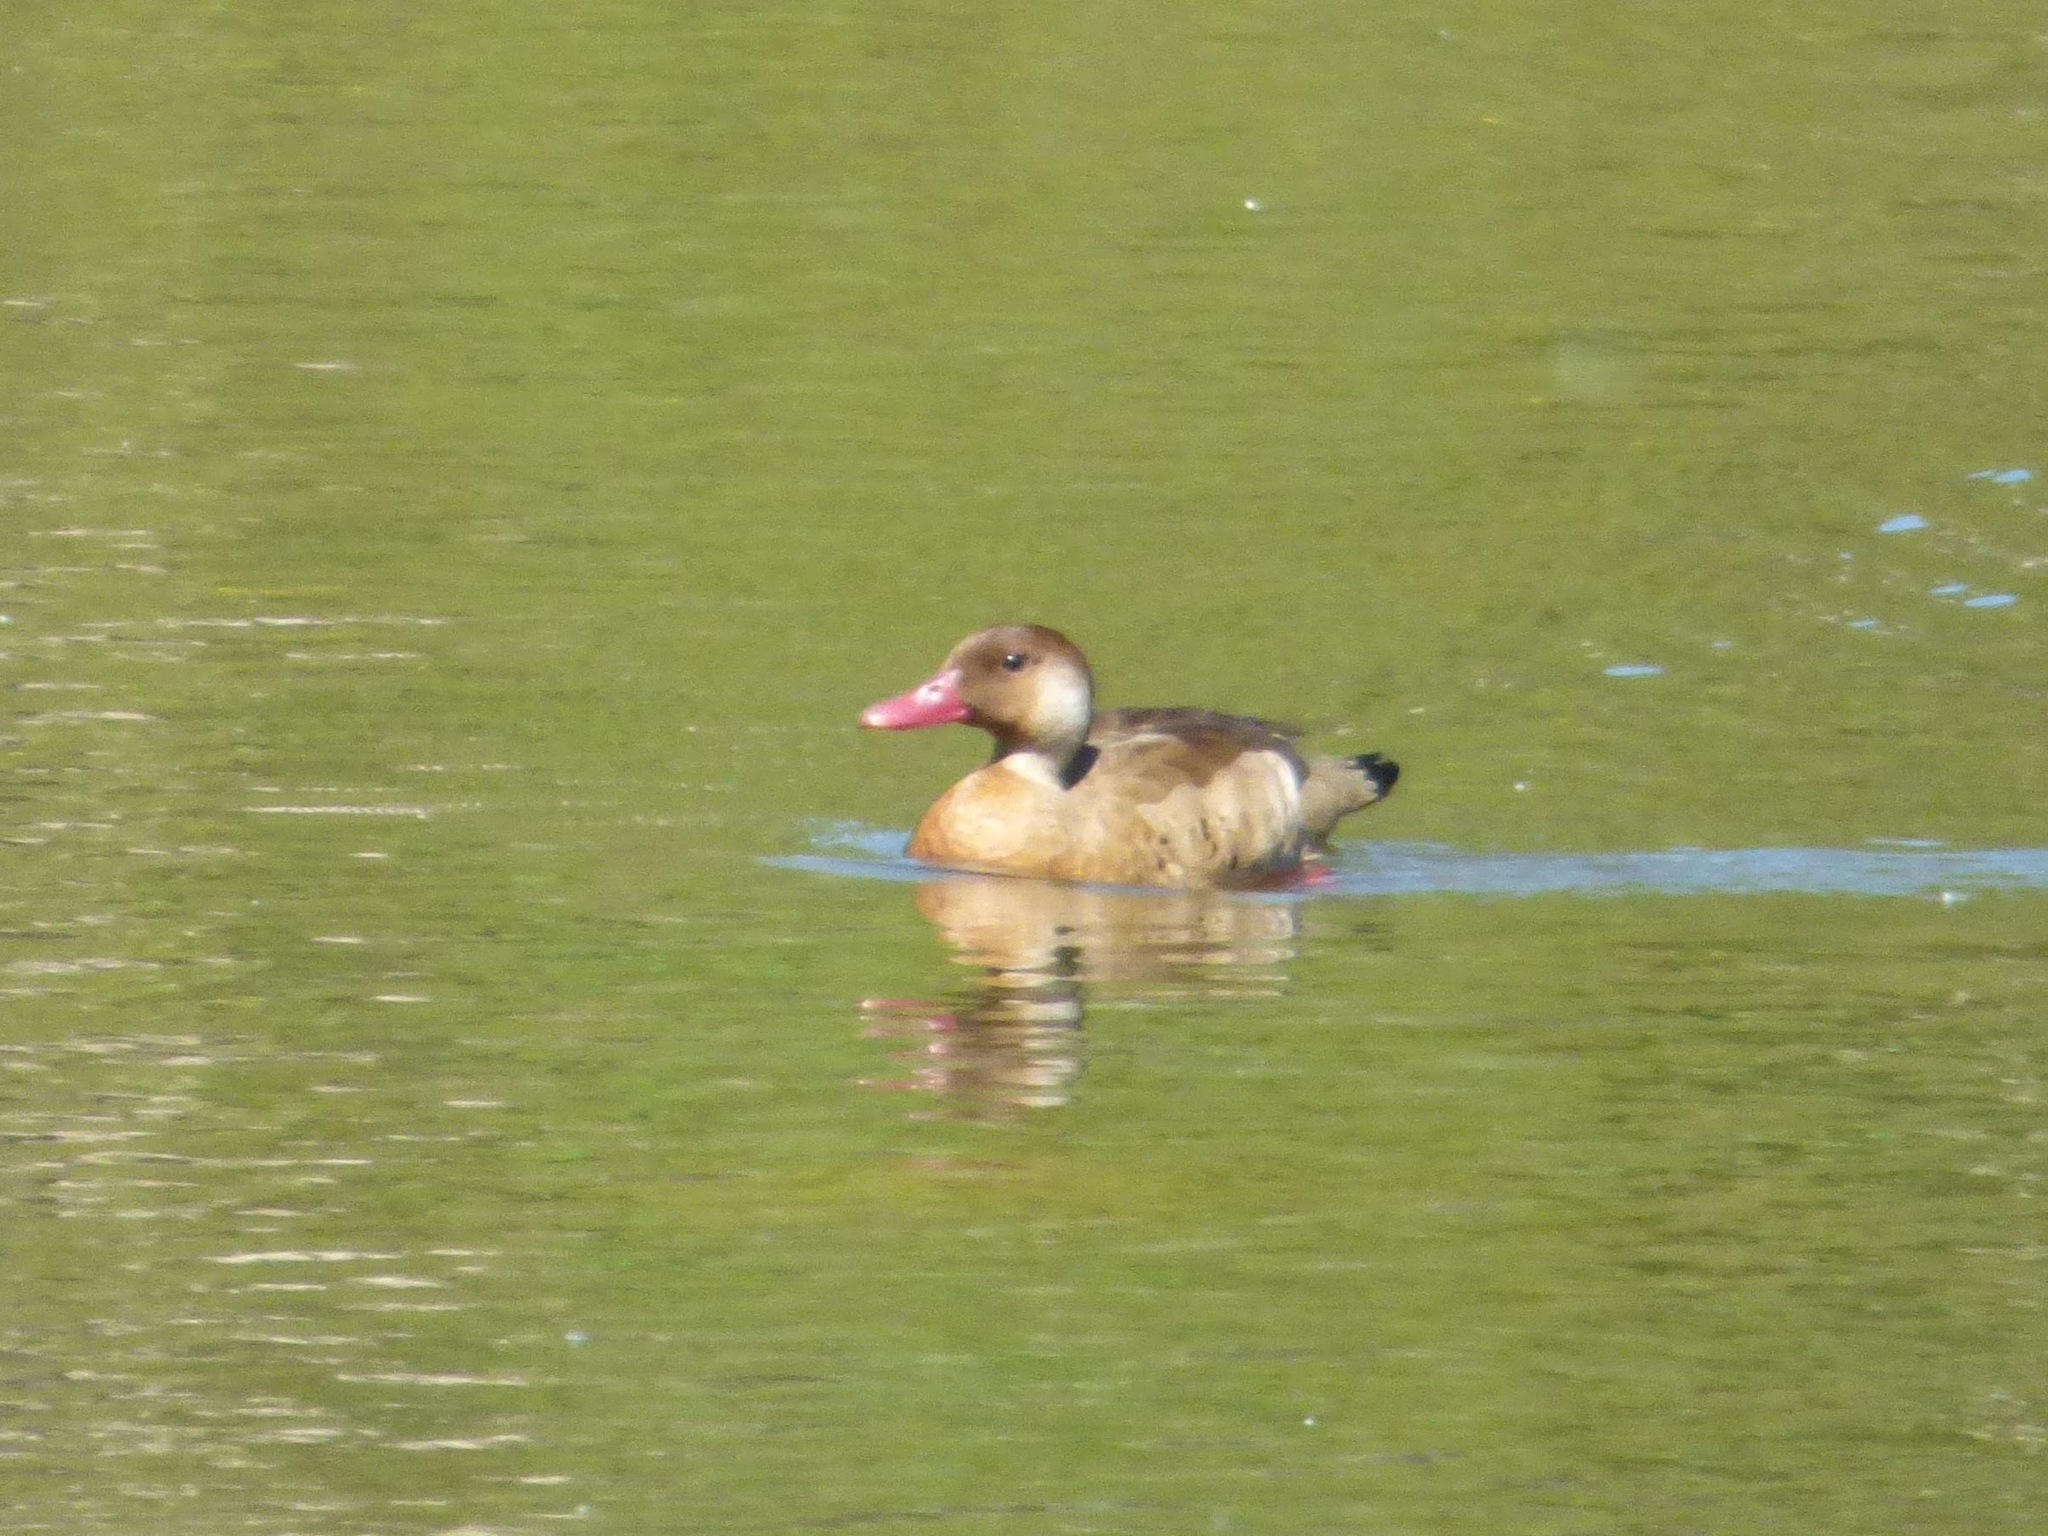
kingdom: Animalia
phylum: Chordata
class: Aves
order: Anseriformes
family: Anatidae
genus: Amazonetta
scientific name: Amazonetta brasiliensis
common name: Brazilian teal
